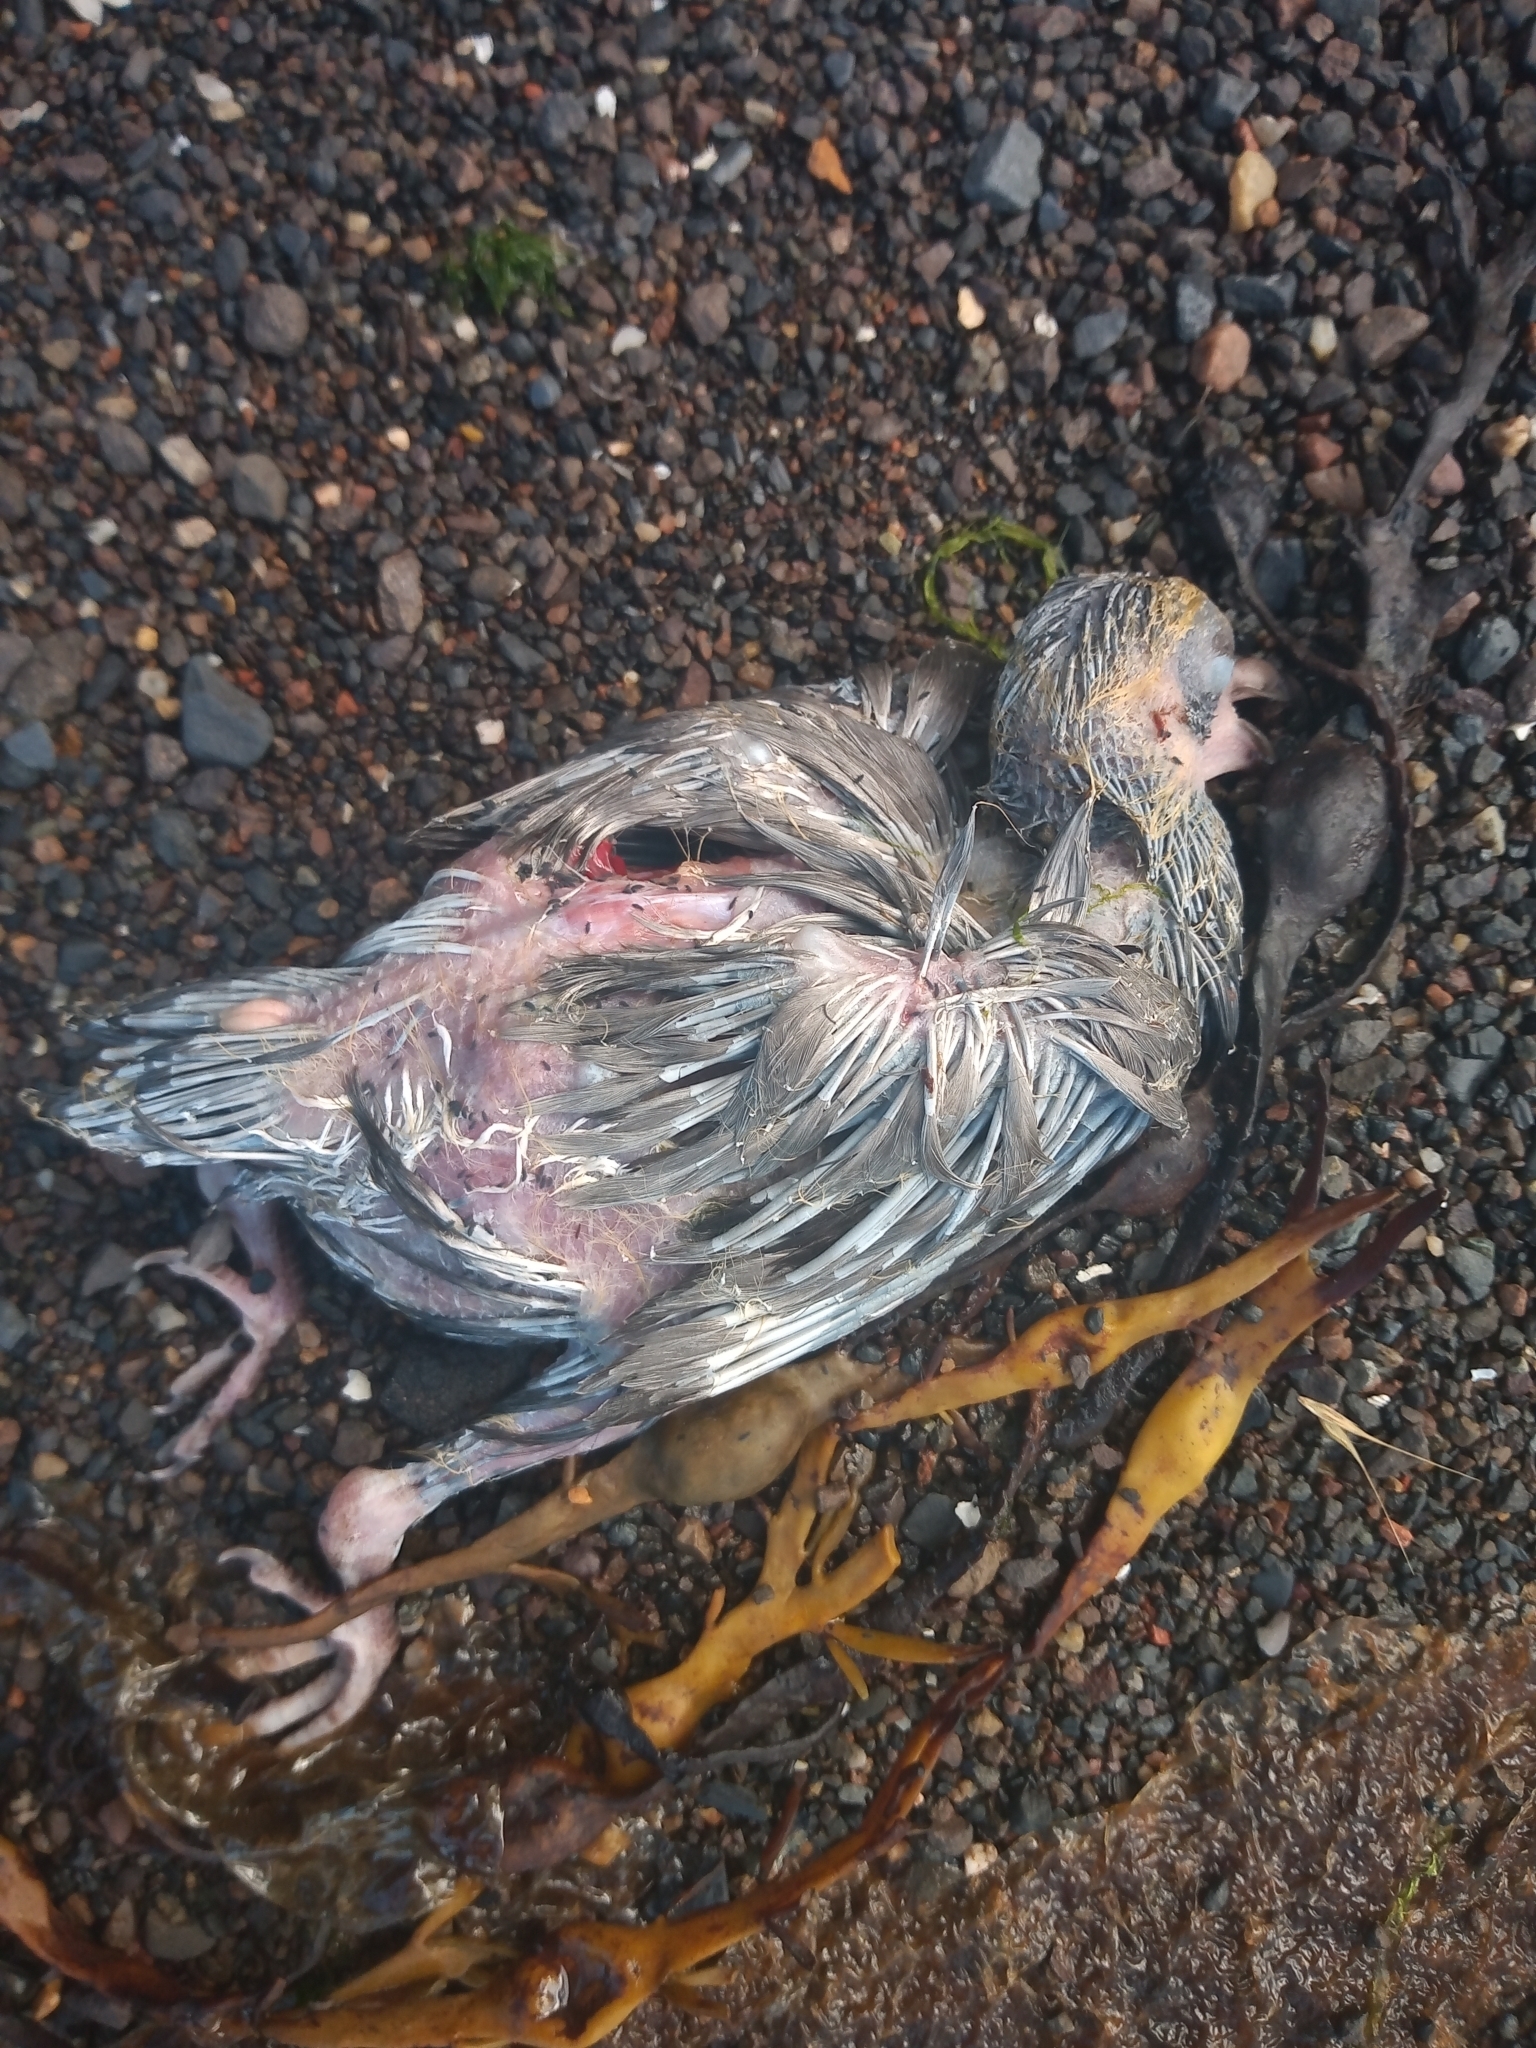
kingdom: Animalia
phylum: Chordata
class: Aves
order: Columbiformes
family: Columbidae
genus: Columba
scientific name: Columba
